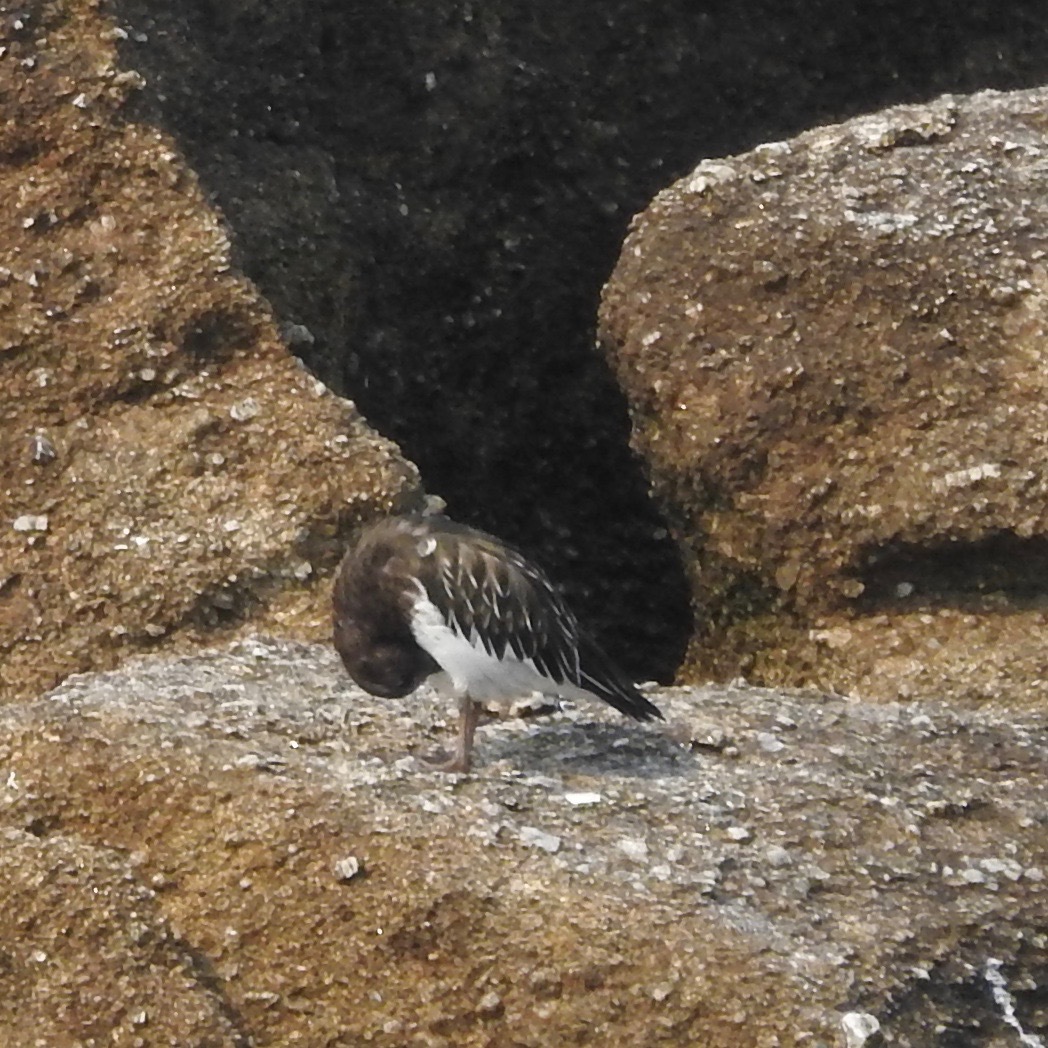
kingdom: Animalia
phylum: Chordata
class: Aves
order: Charadriiformes
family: Scolopacidae
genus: Arenaria
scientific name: Arenaria melanocephala
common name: Black turnstone
